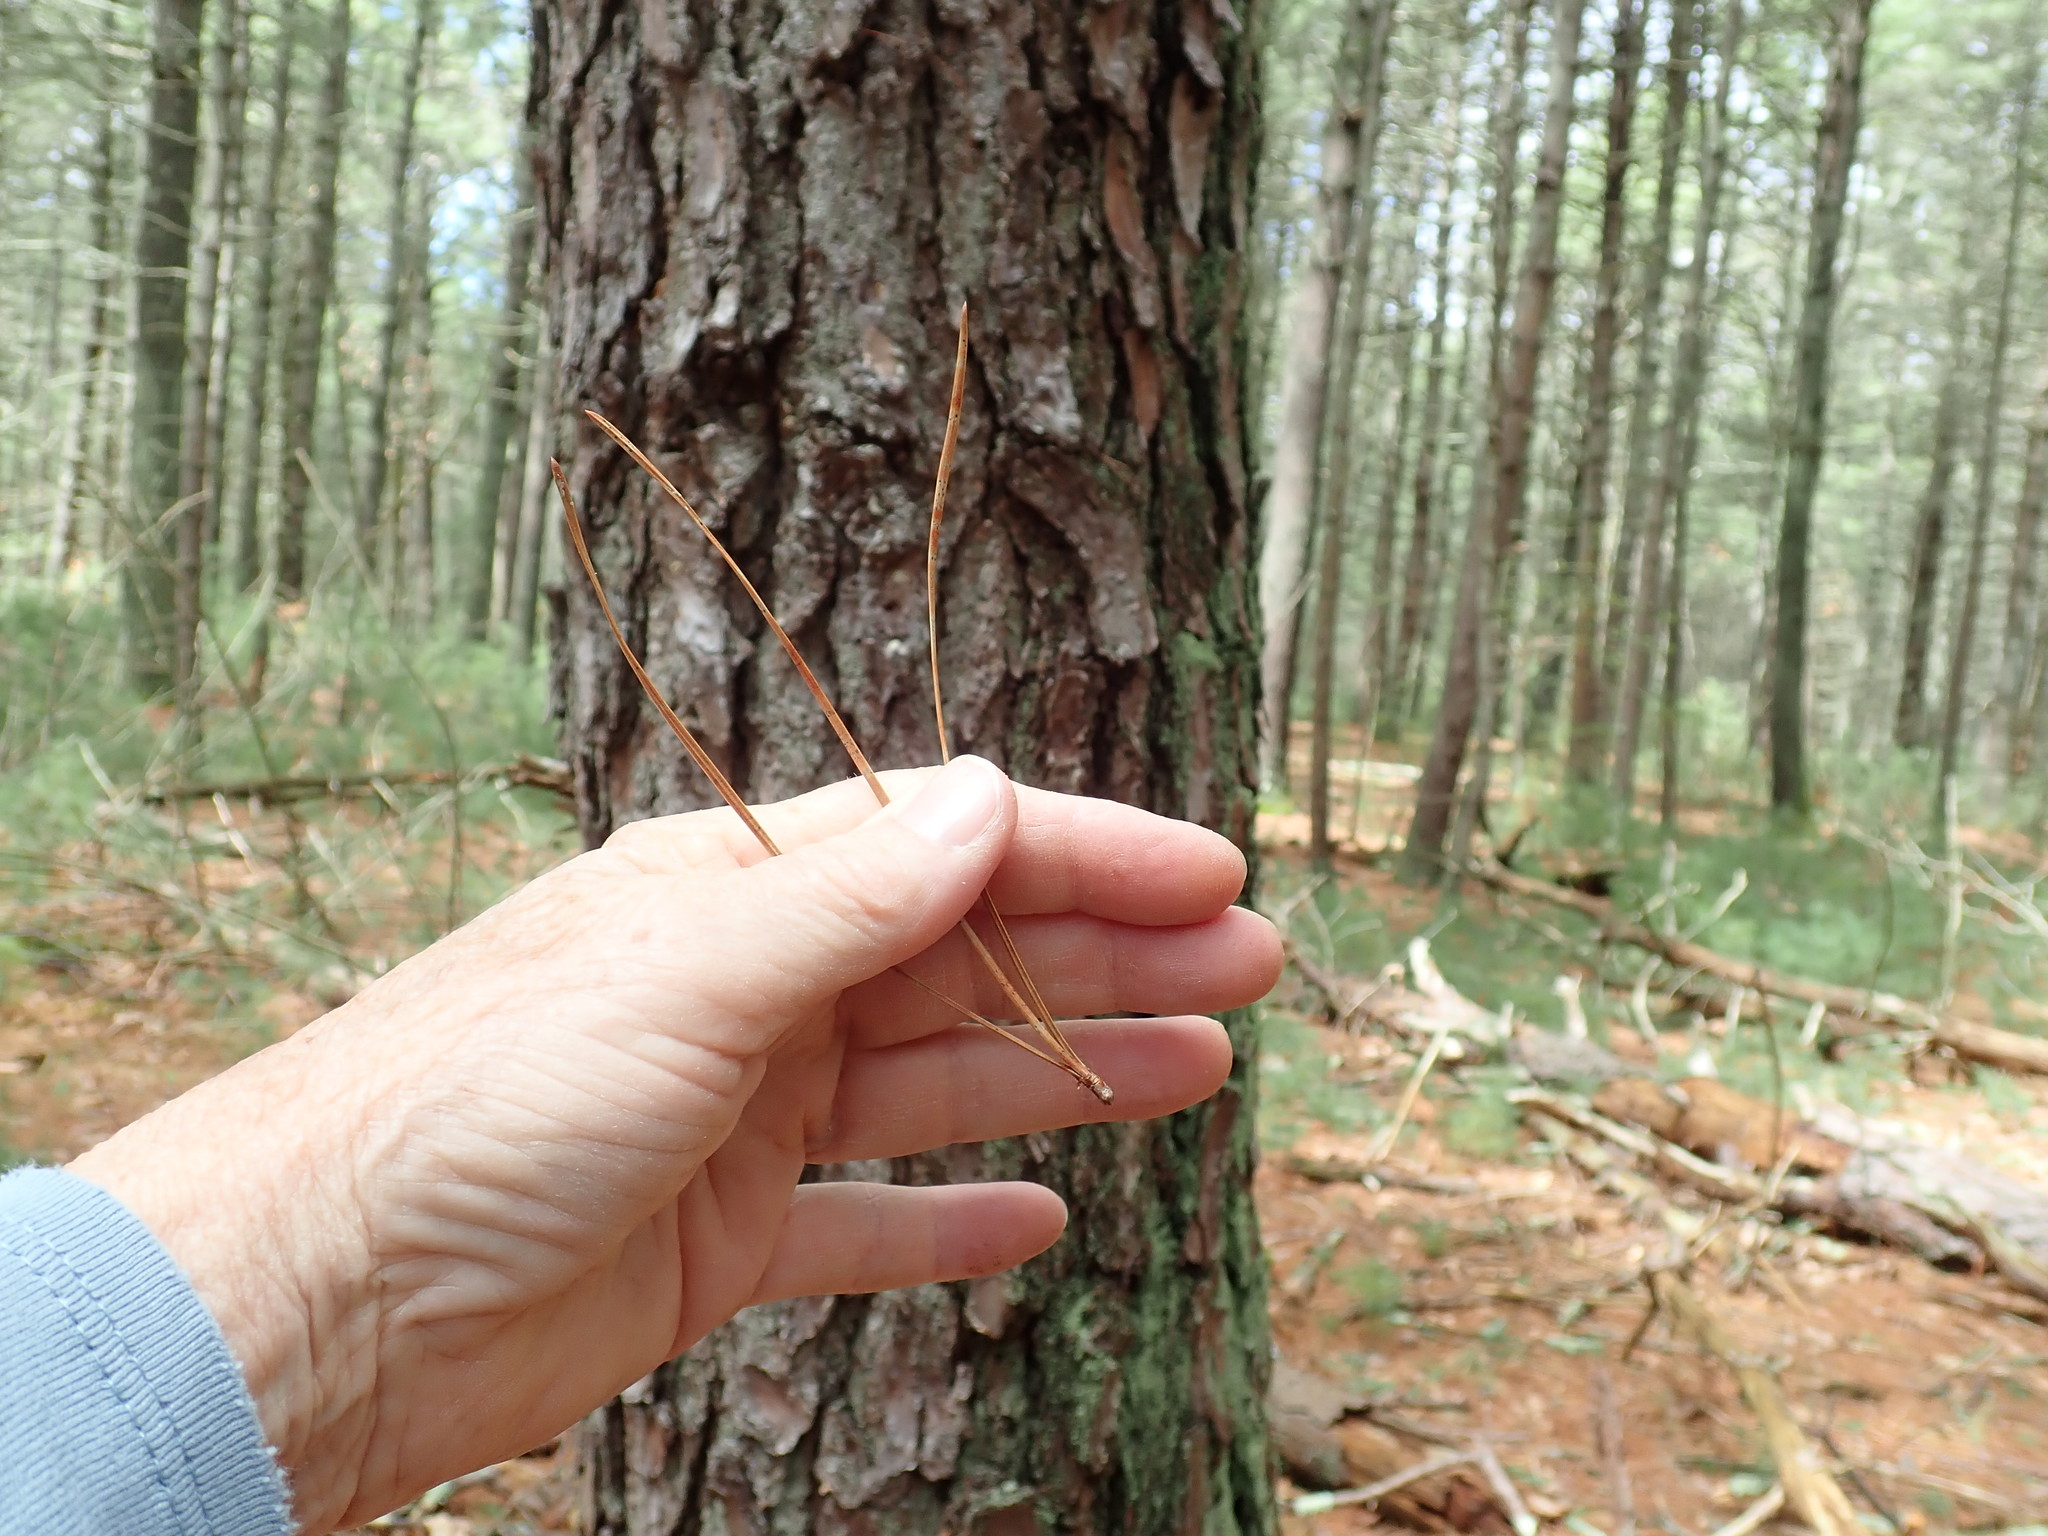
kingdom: Plantae
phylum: Tracheophyta
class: Pinopsida
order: Pinales
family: Pinaceae
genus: Pinus
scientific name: Pinus rigida
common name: Pitch pine
